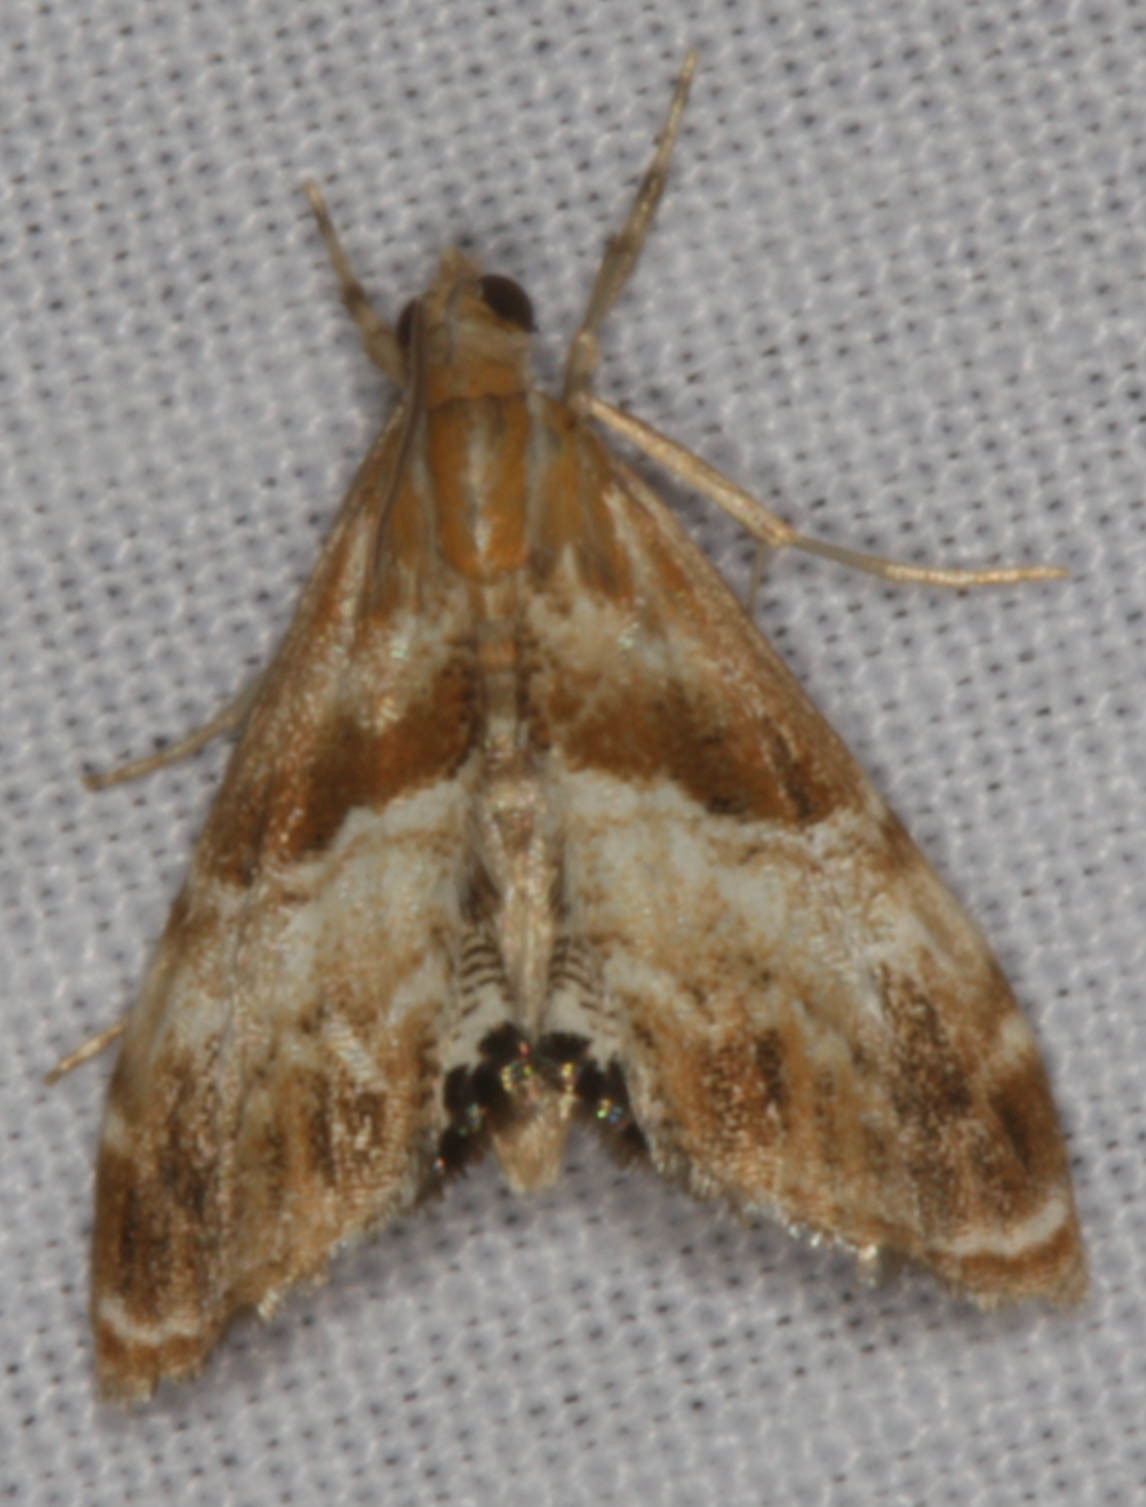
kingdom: Animalia
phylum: Arthropoda
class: Insecta
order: Lepidoptera
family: Crambidae
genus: Dicymolomia
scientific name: Dicymolomia metalliferalis
